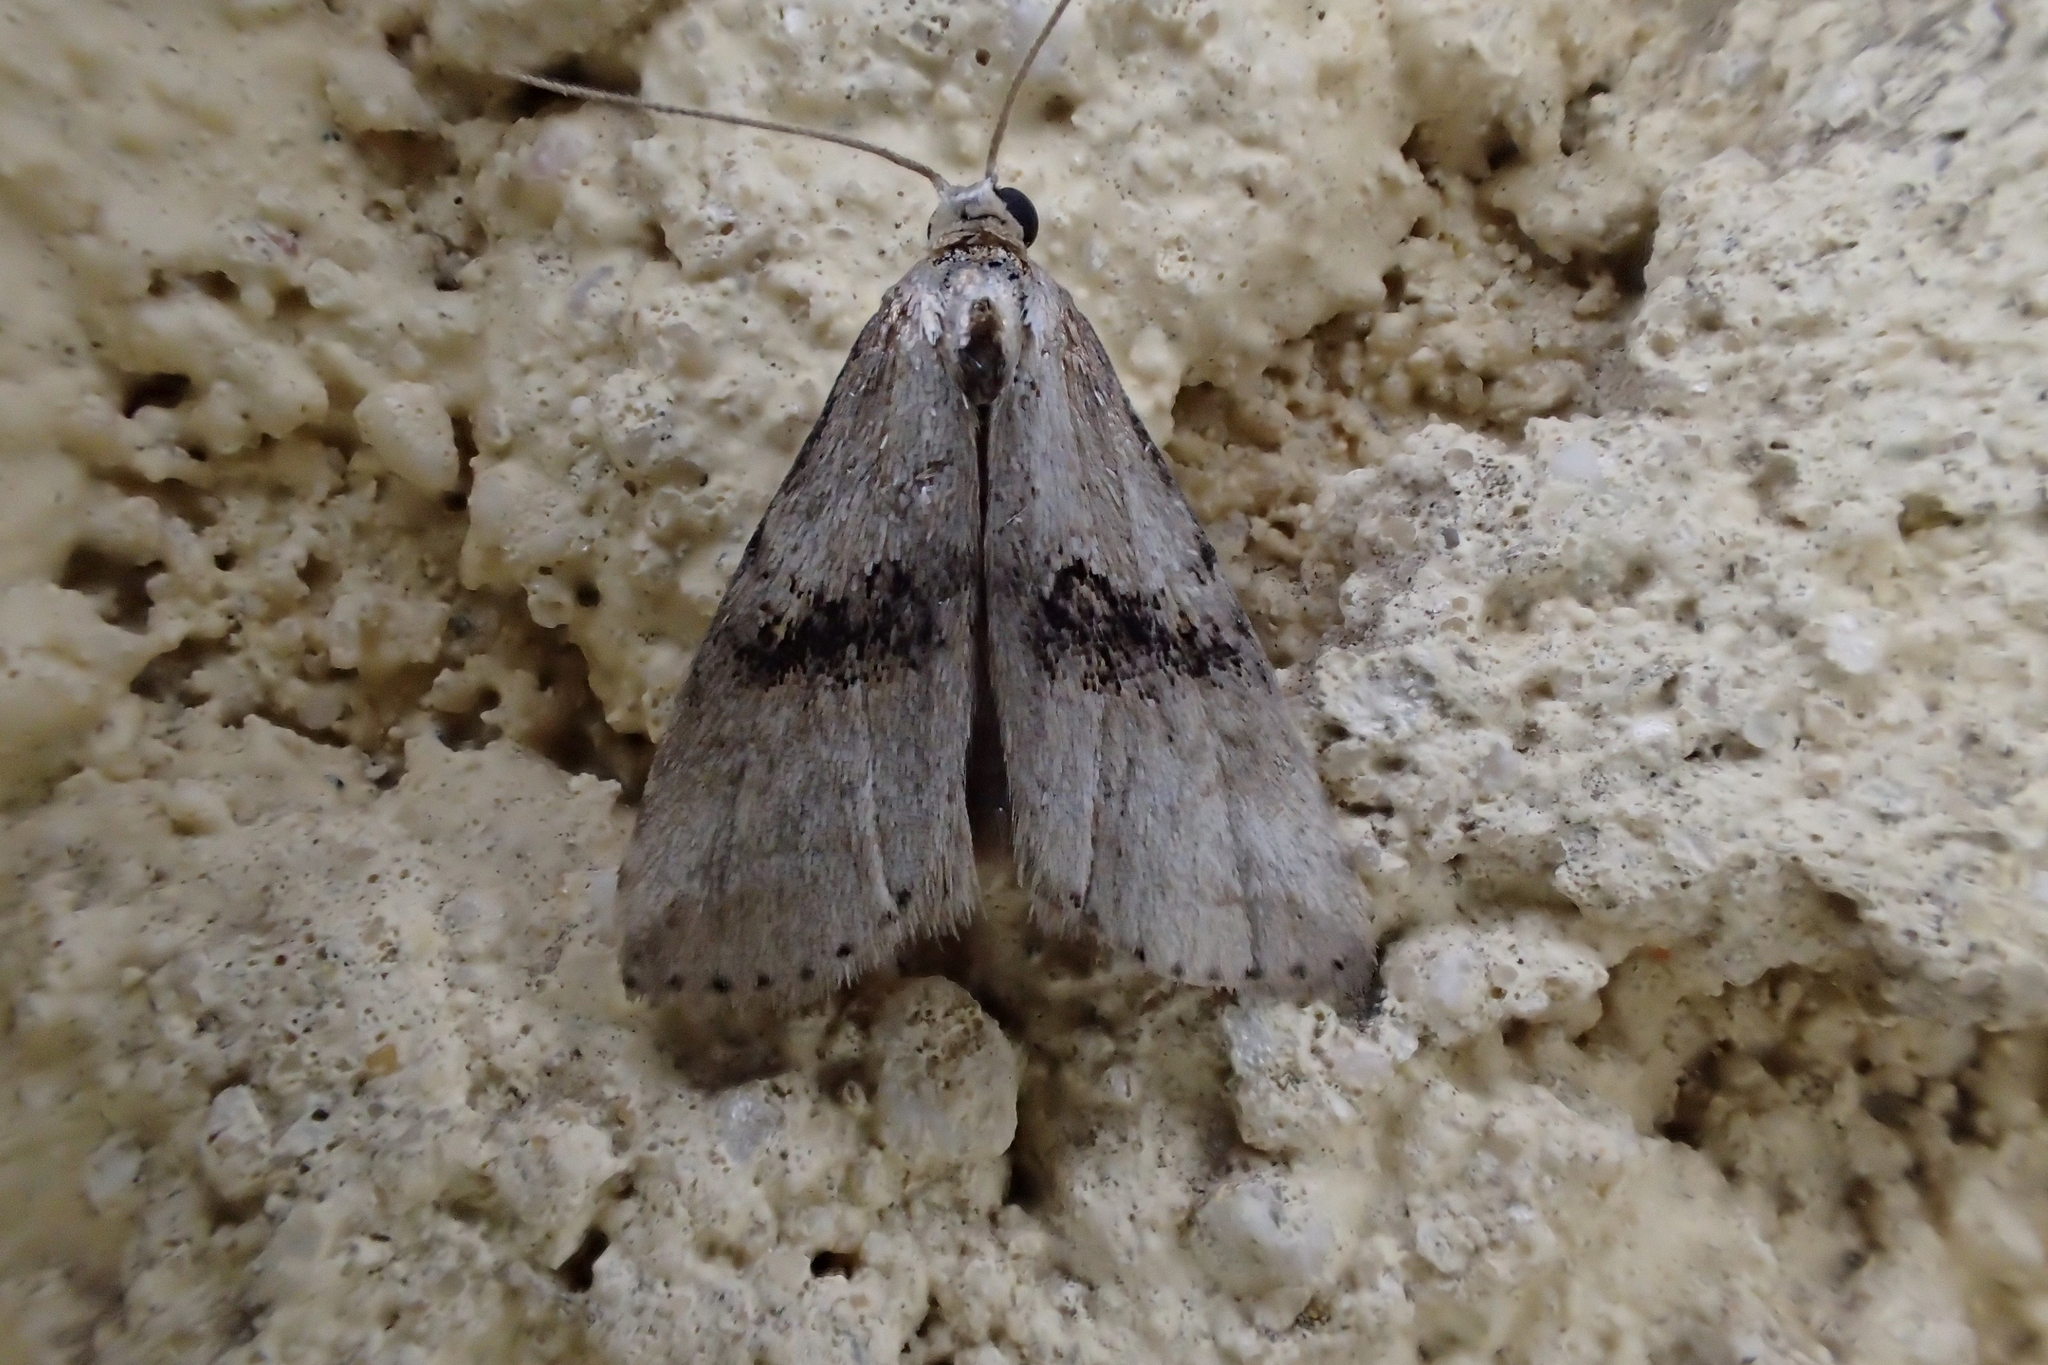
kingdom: Animalia
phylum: Arthropoda
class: Insecta
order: Lepidoptera
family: Erebidae
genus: Zebeeba
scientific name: Zebeeba falsalis
